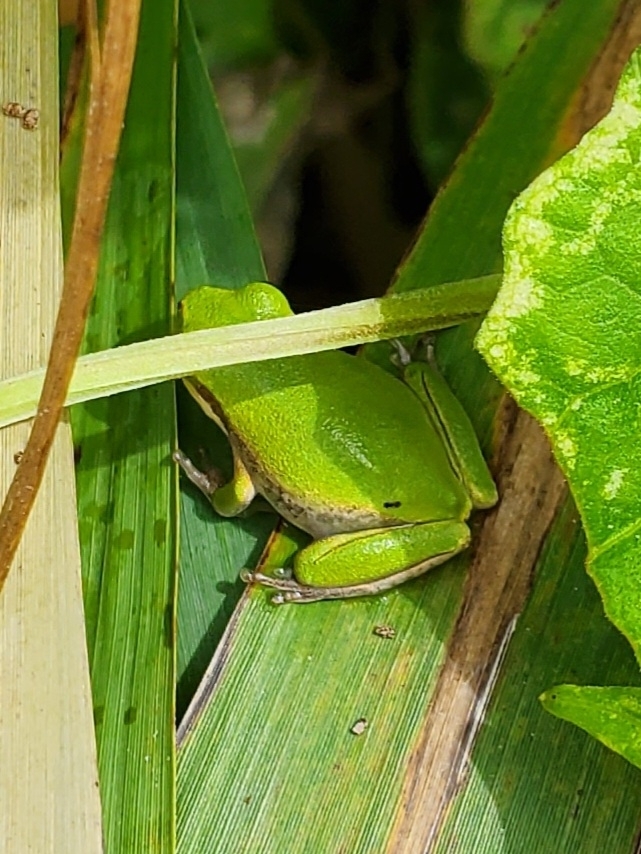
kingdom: Animalia
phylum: Chordata
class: Amphibia
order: Anura
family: Hylidae
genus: Dryophytes
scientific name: Dryophytes squirellus
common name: Squirrel treefrog
